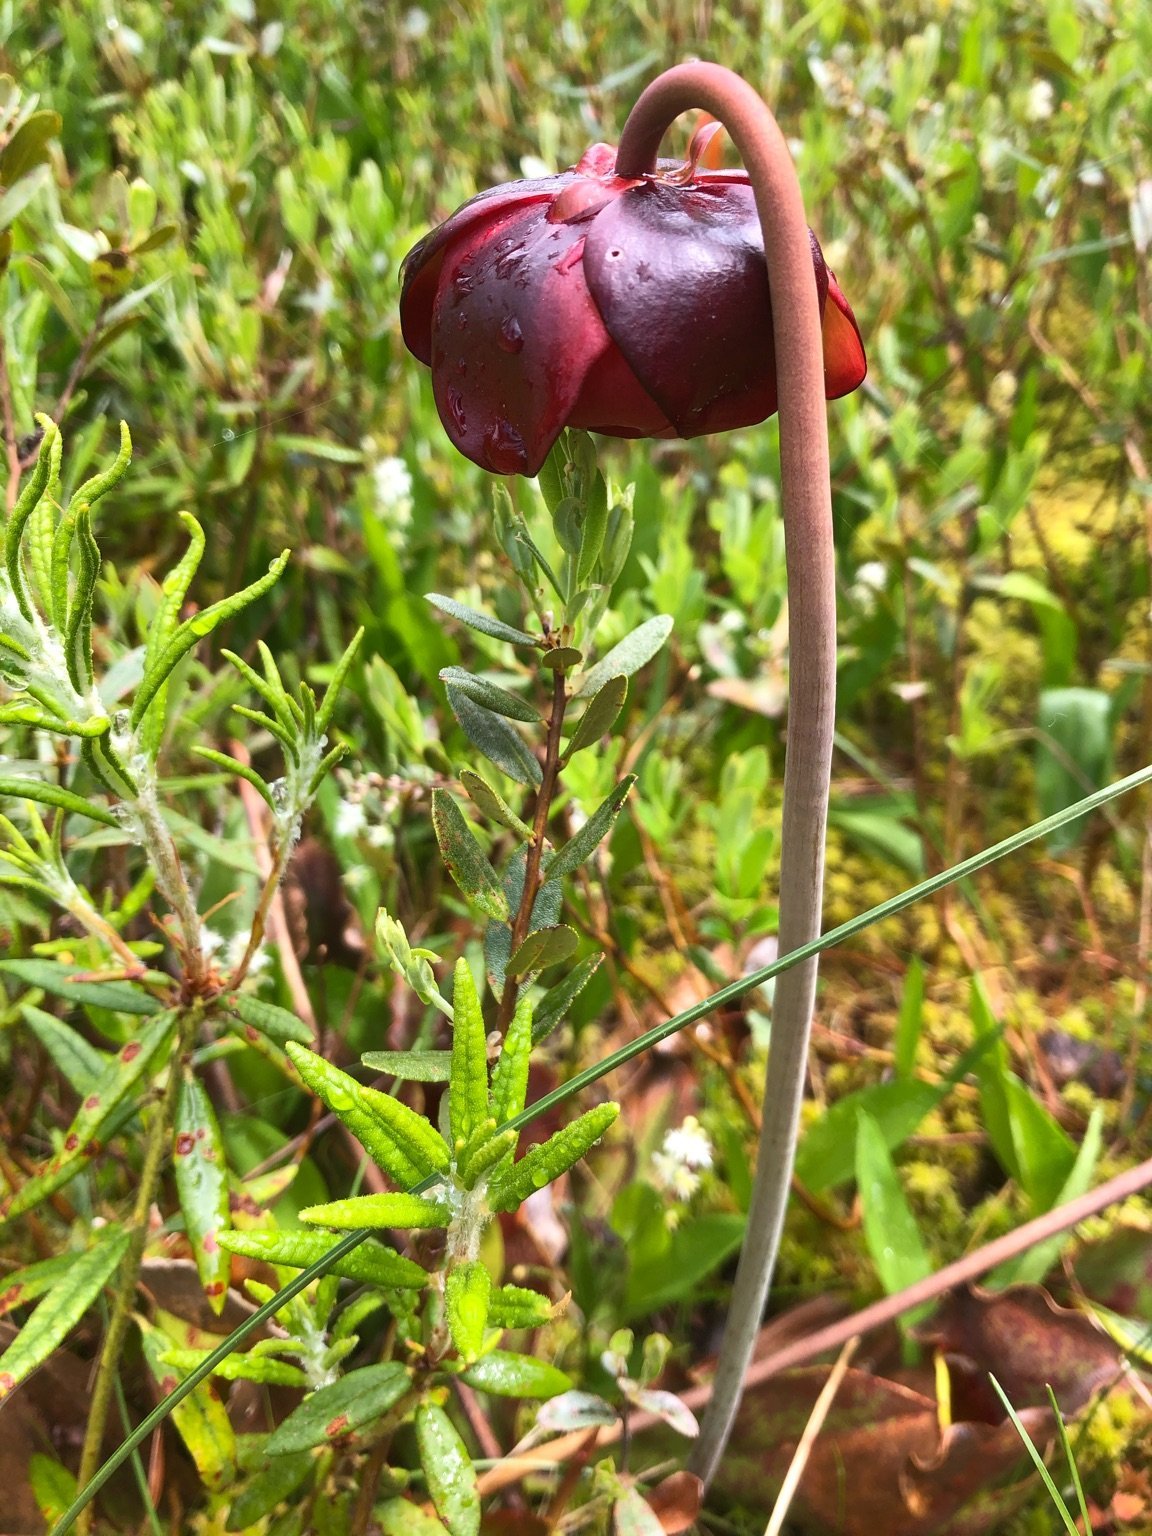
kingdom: Plantae
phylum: Tracheophyta
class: Magnoliopsida
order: Ericales
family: Sarraceniaceae
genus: Sarracenia
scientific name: Sarracenia purpurea
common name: Pitcherplant
